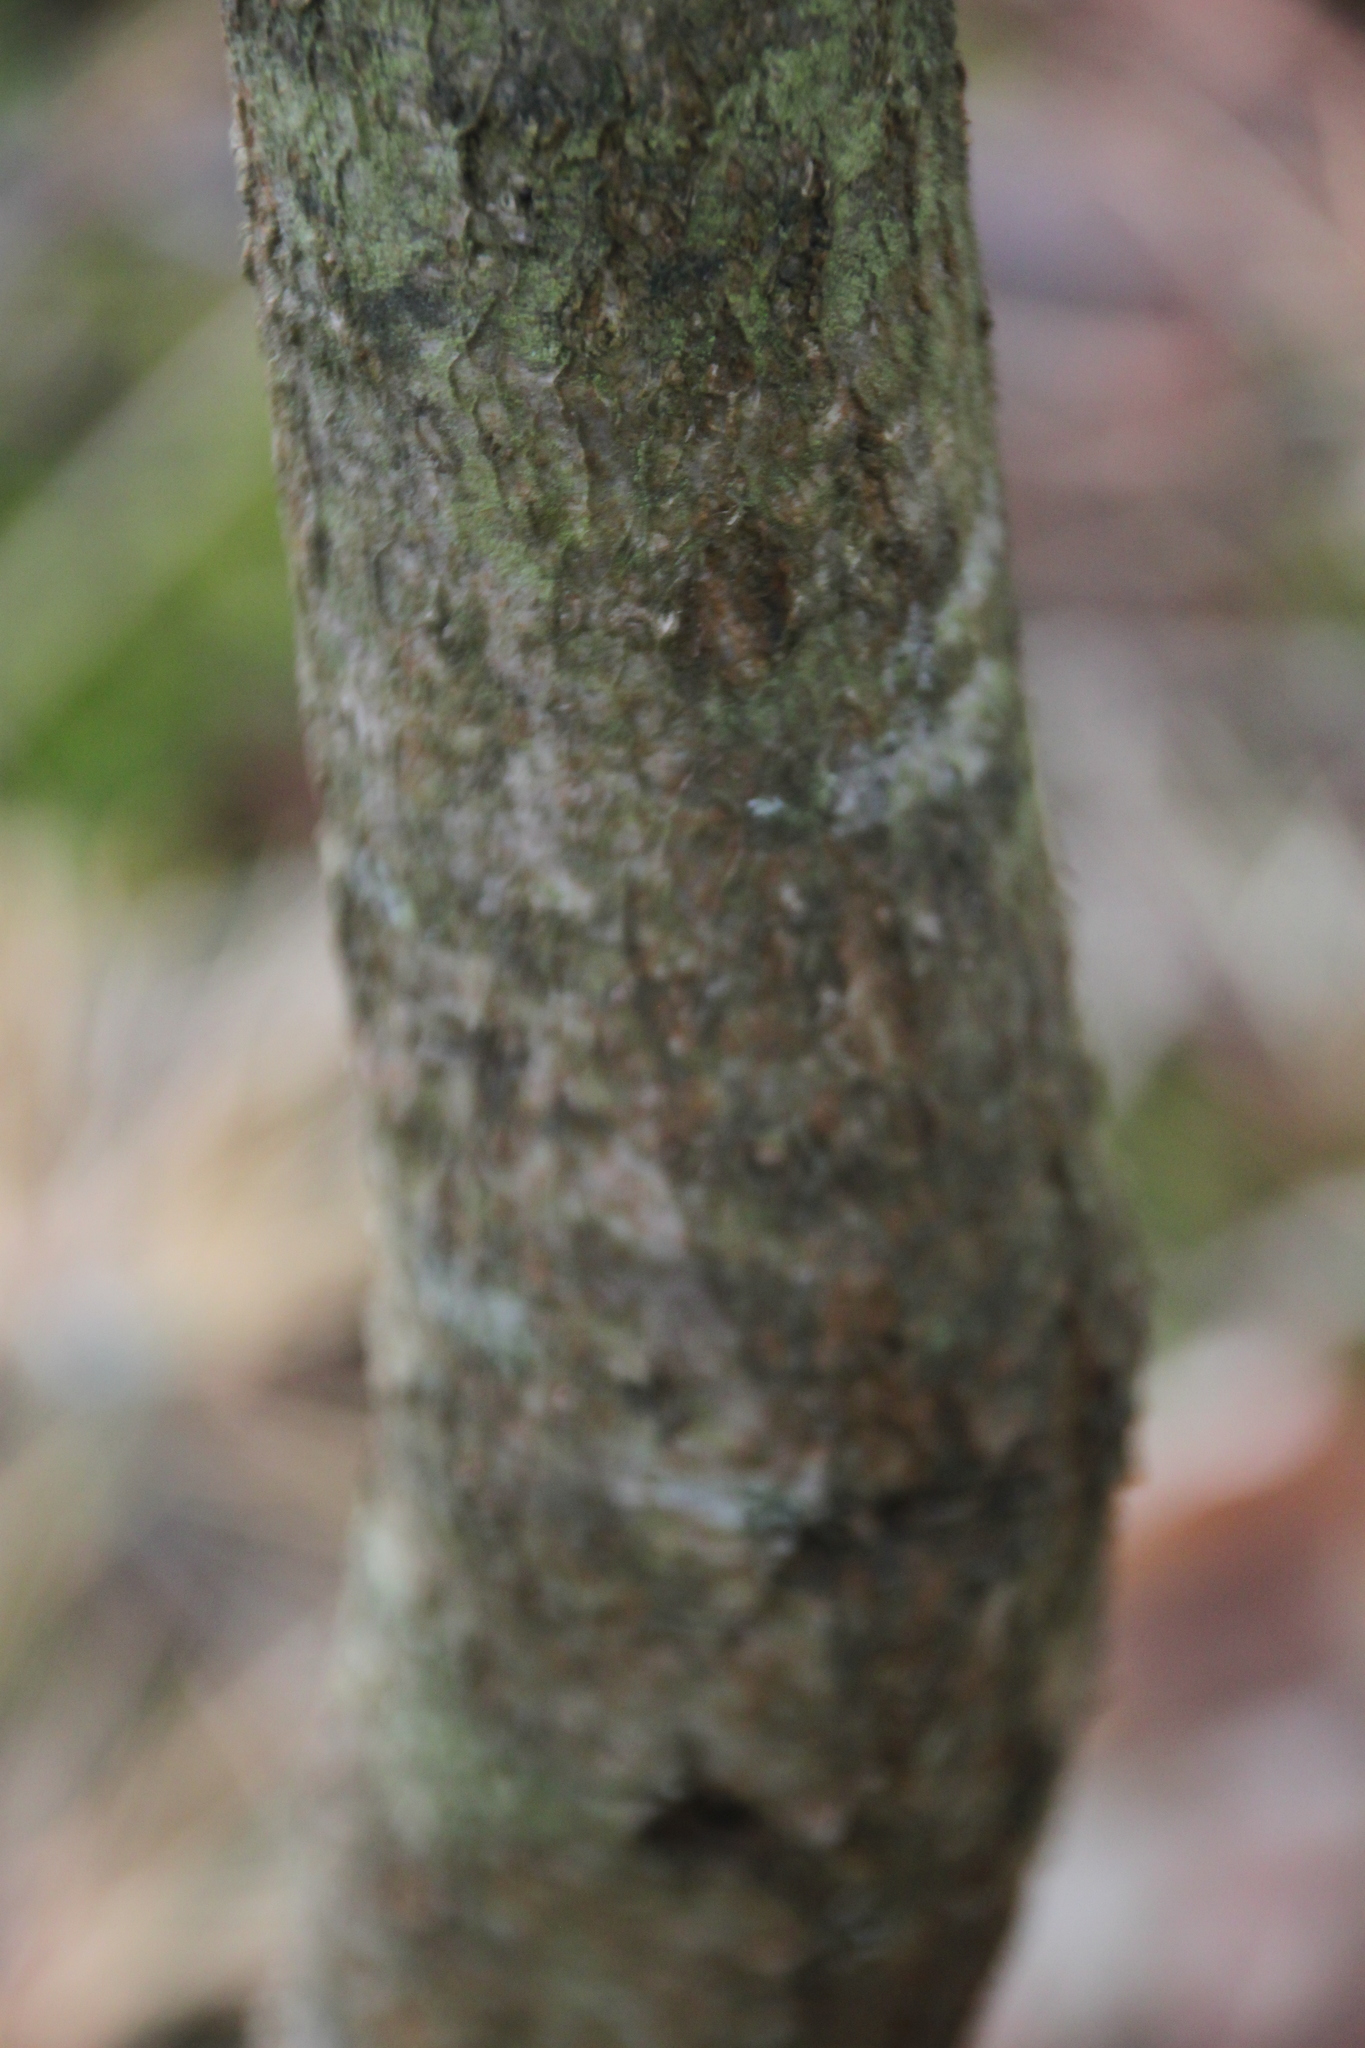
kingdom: Plantae
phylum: Tracheophyta
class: Magnoliopsida
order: Fagales
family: Fagaceae
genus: Quercus
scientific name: Quercus robur
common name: Pedunculate oak
